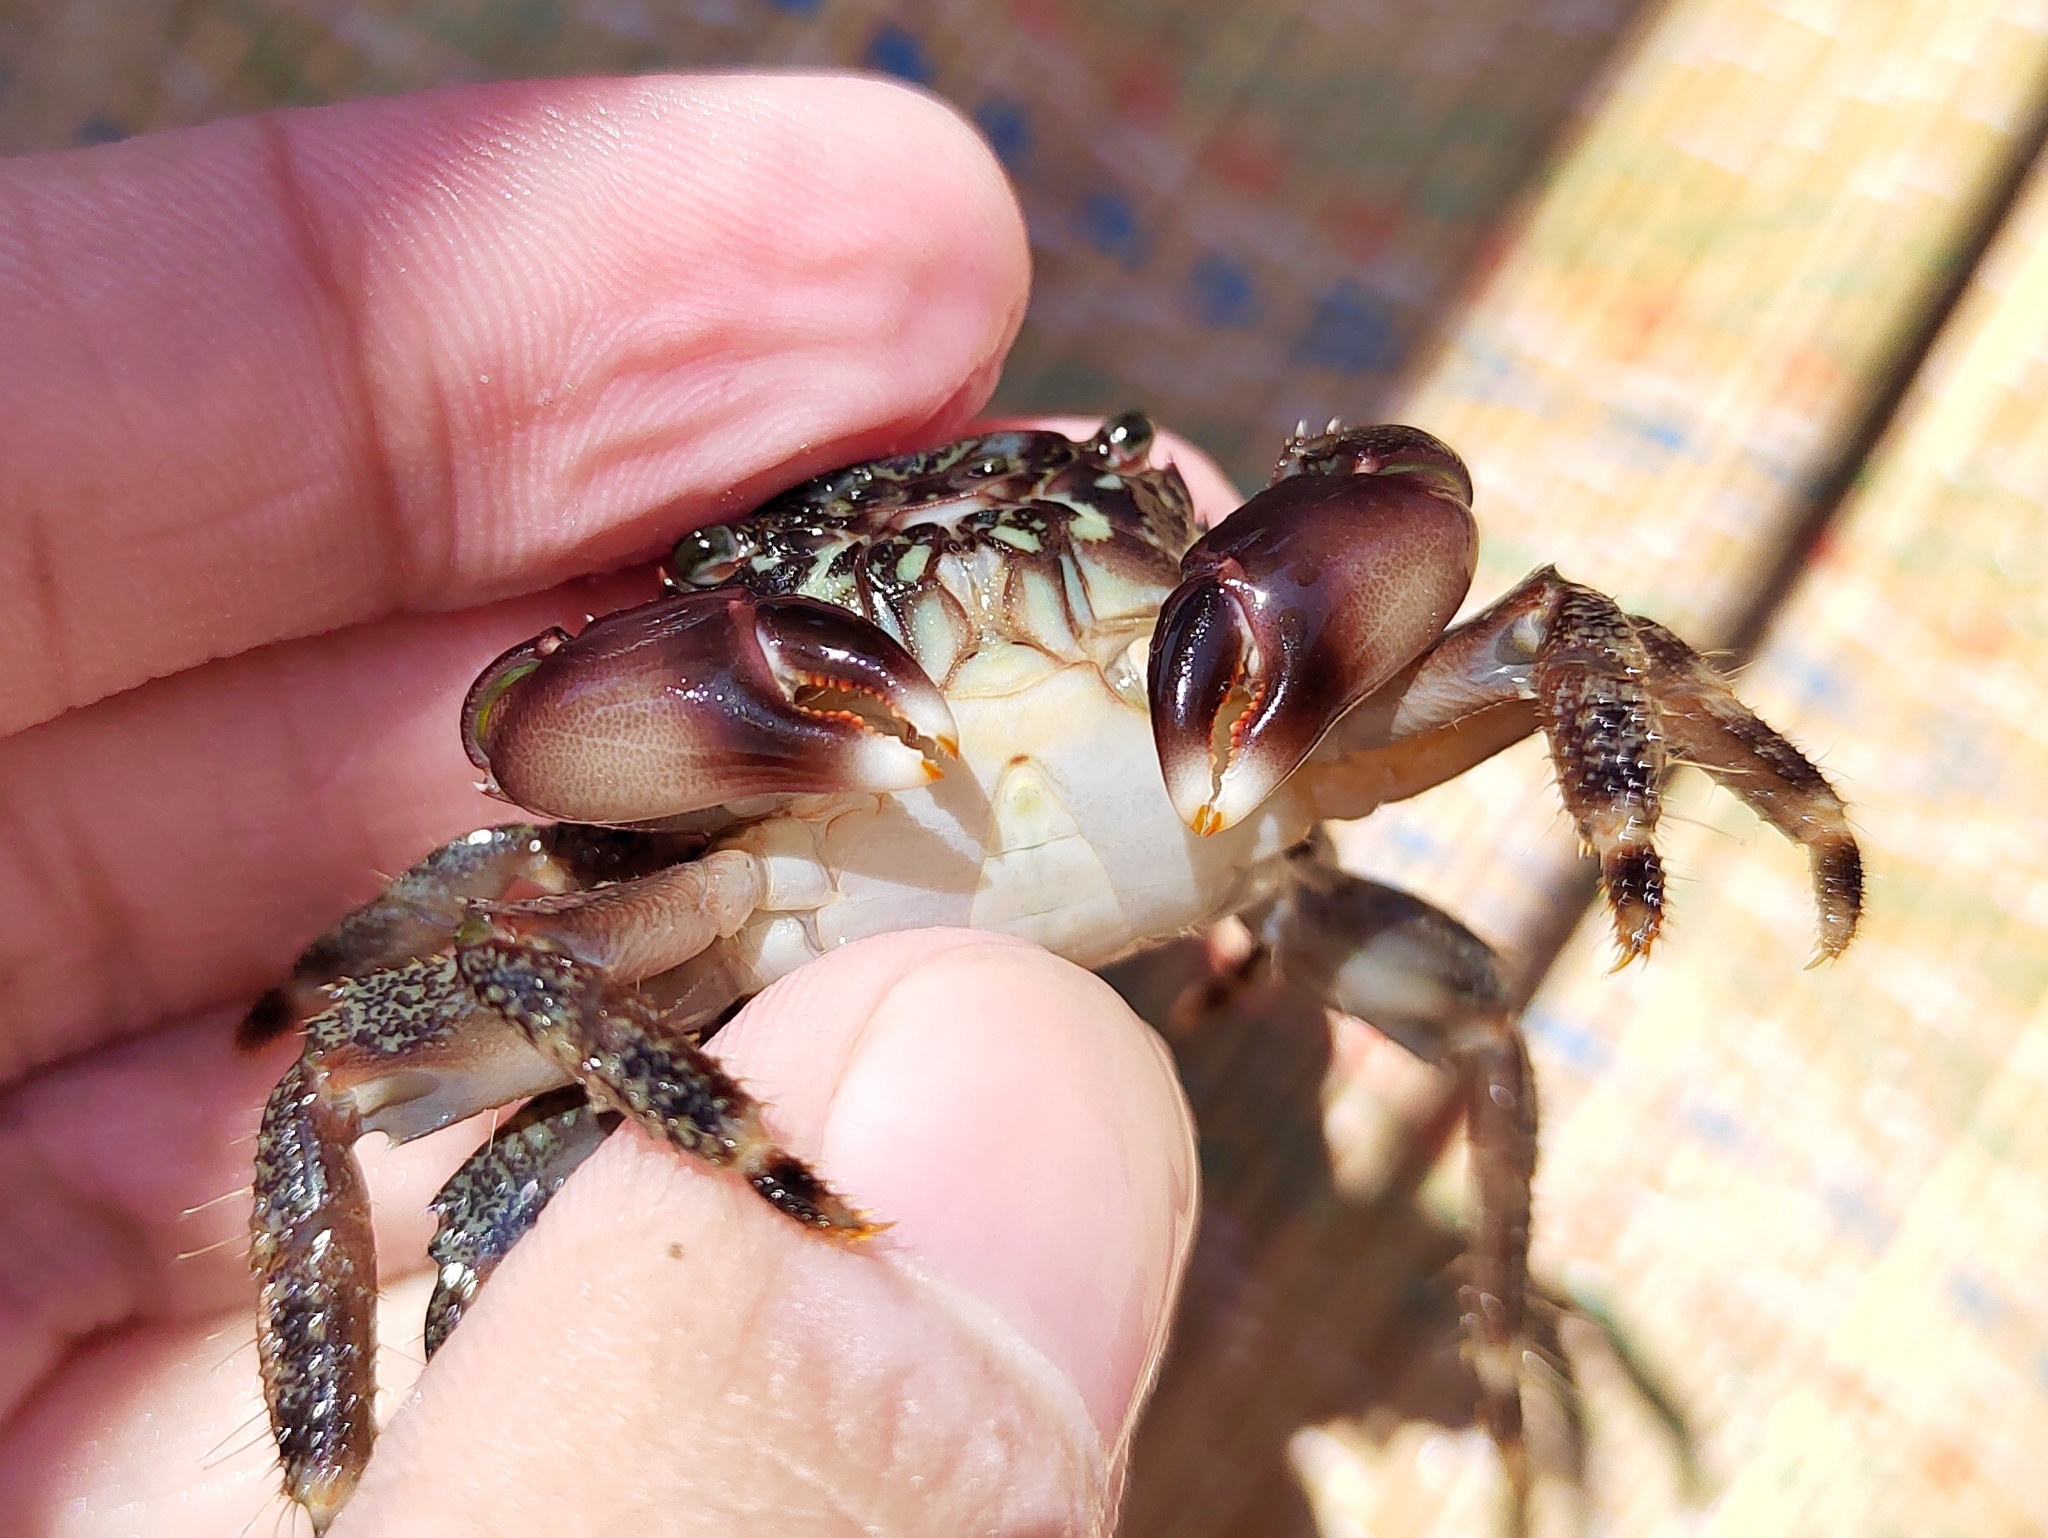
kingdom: Animalia
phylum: Arthropoda
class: Malacostraca
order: Decapoda
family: Grapsidae
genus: Pachygrapsus
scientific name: Pachygrapsus marmoratus
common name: Marbled rock crab
